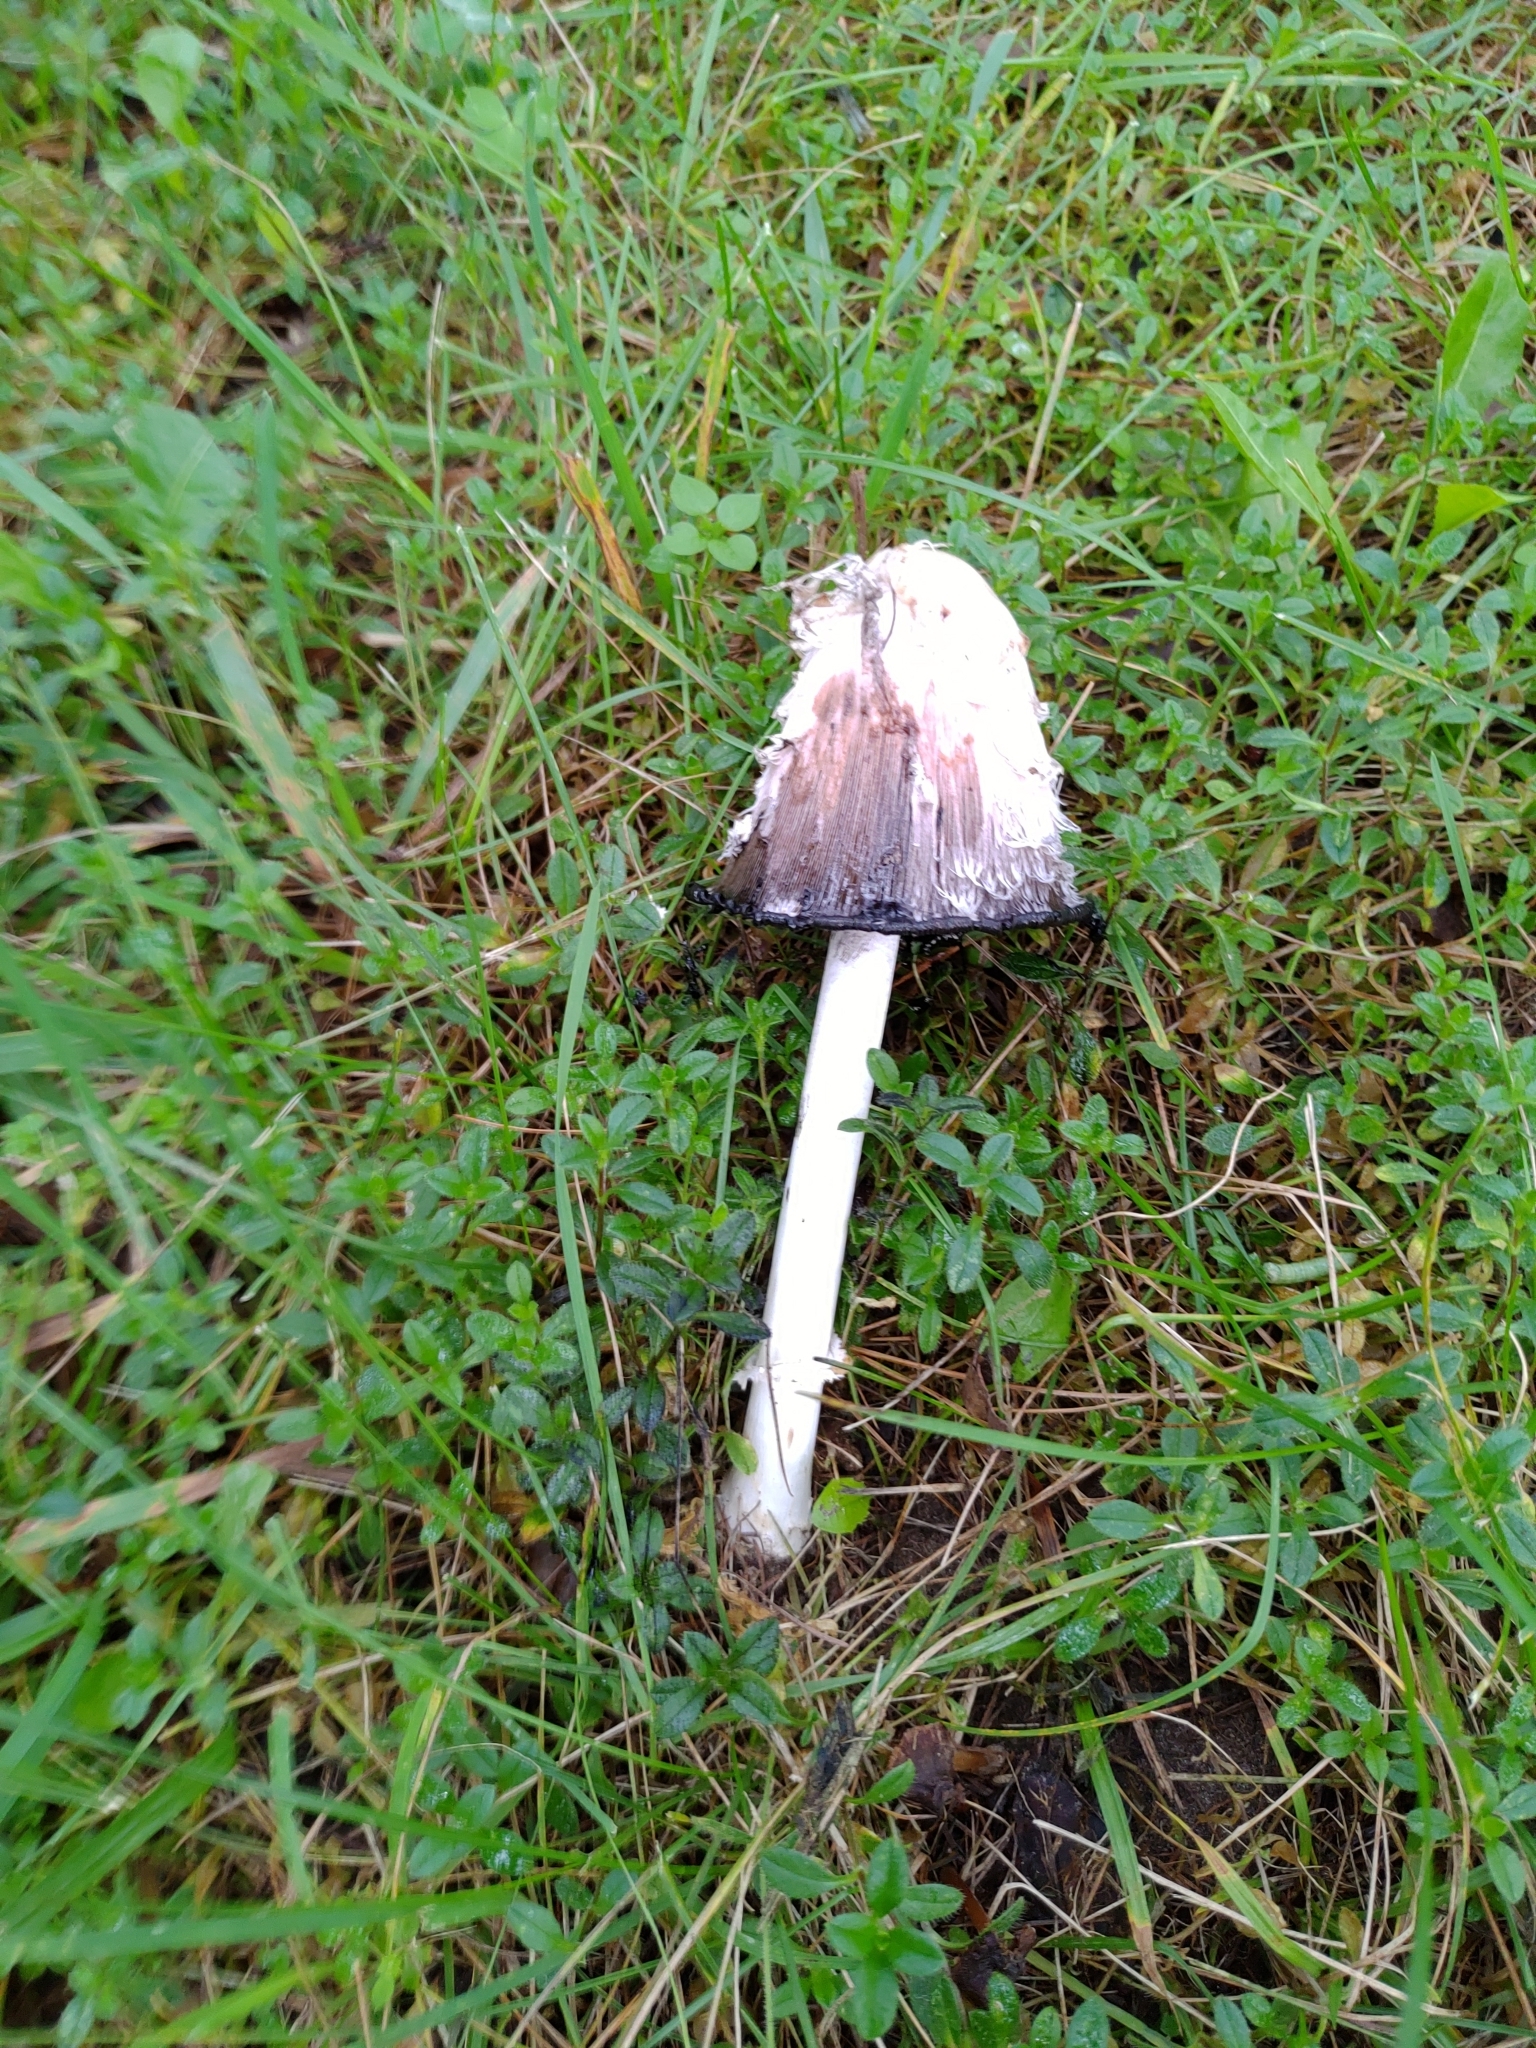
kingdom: Fungi
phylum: Basidiomycota
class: Agaricomycetes
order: Agaricales
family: Agaricaceae
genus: Coprinus
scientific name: Coprinus comatus
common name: Lawyer's wig
